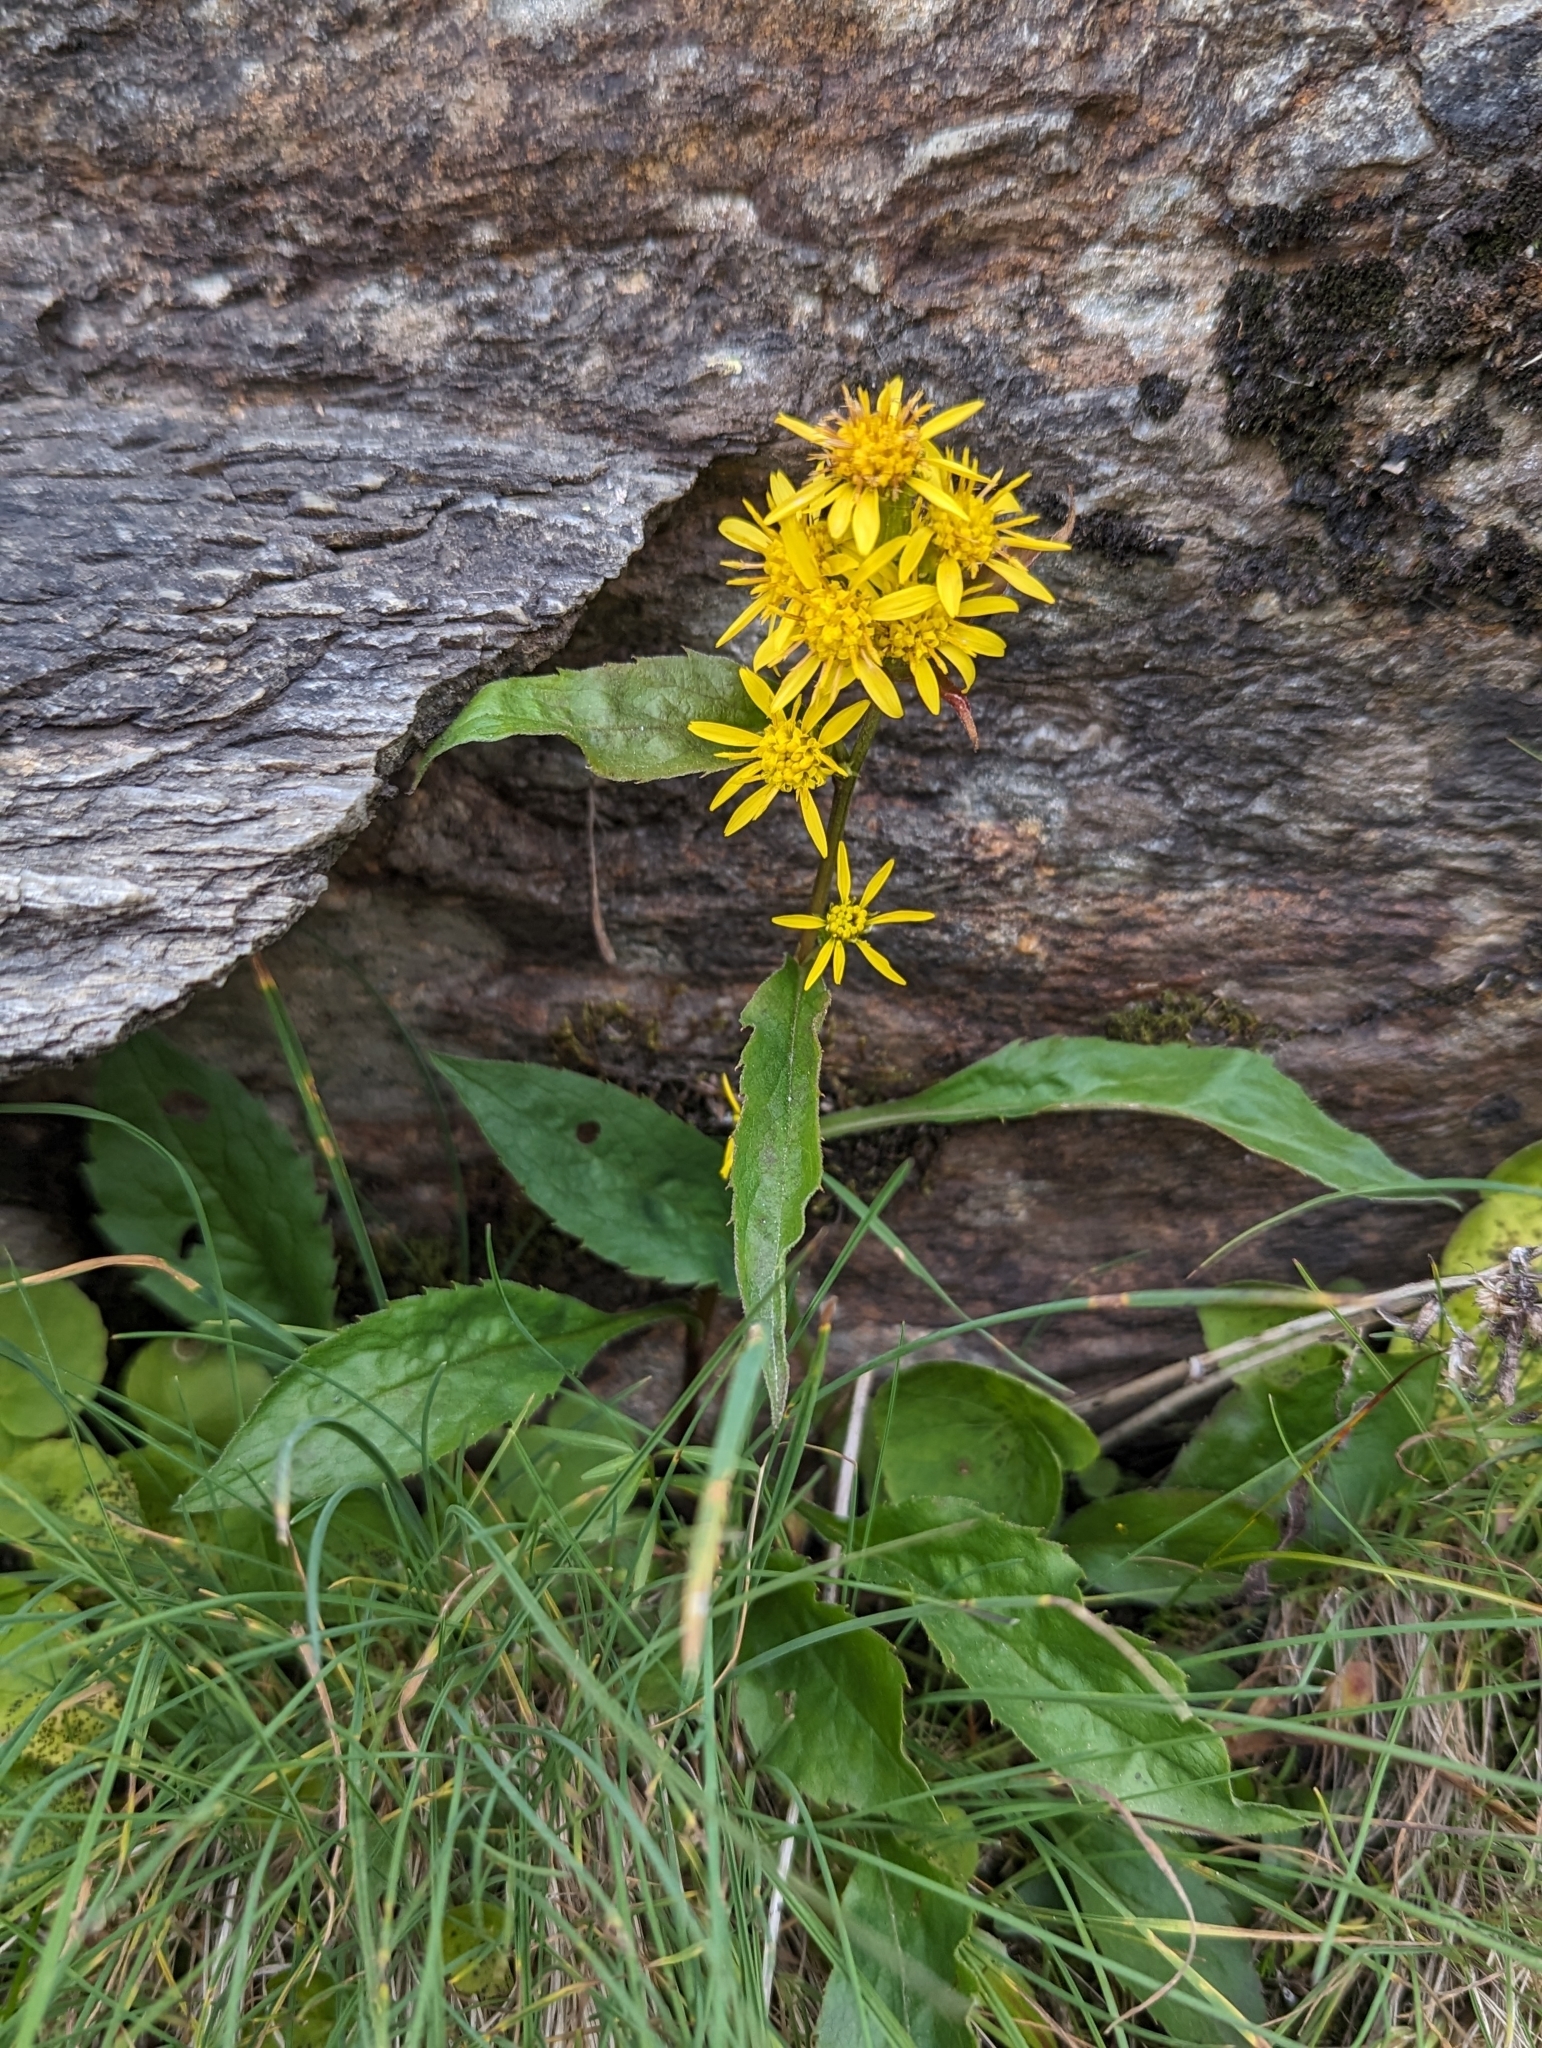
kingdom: Plantae
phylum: Tracheophyta
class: Magnoliopsida
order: Asterales
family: Asteraceae
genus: Solidago
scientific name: Solidago virgaurea
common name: Goldenrod
